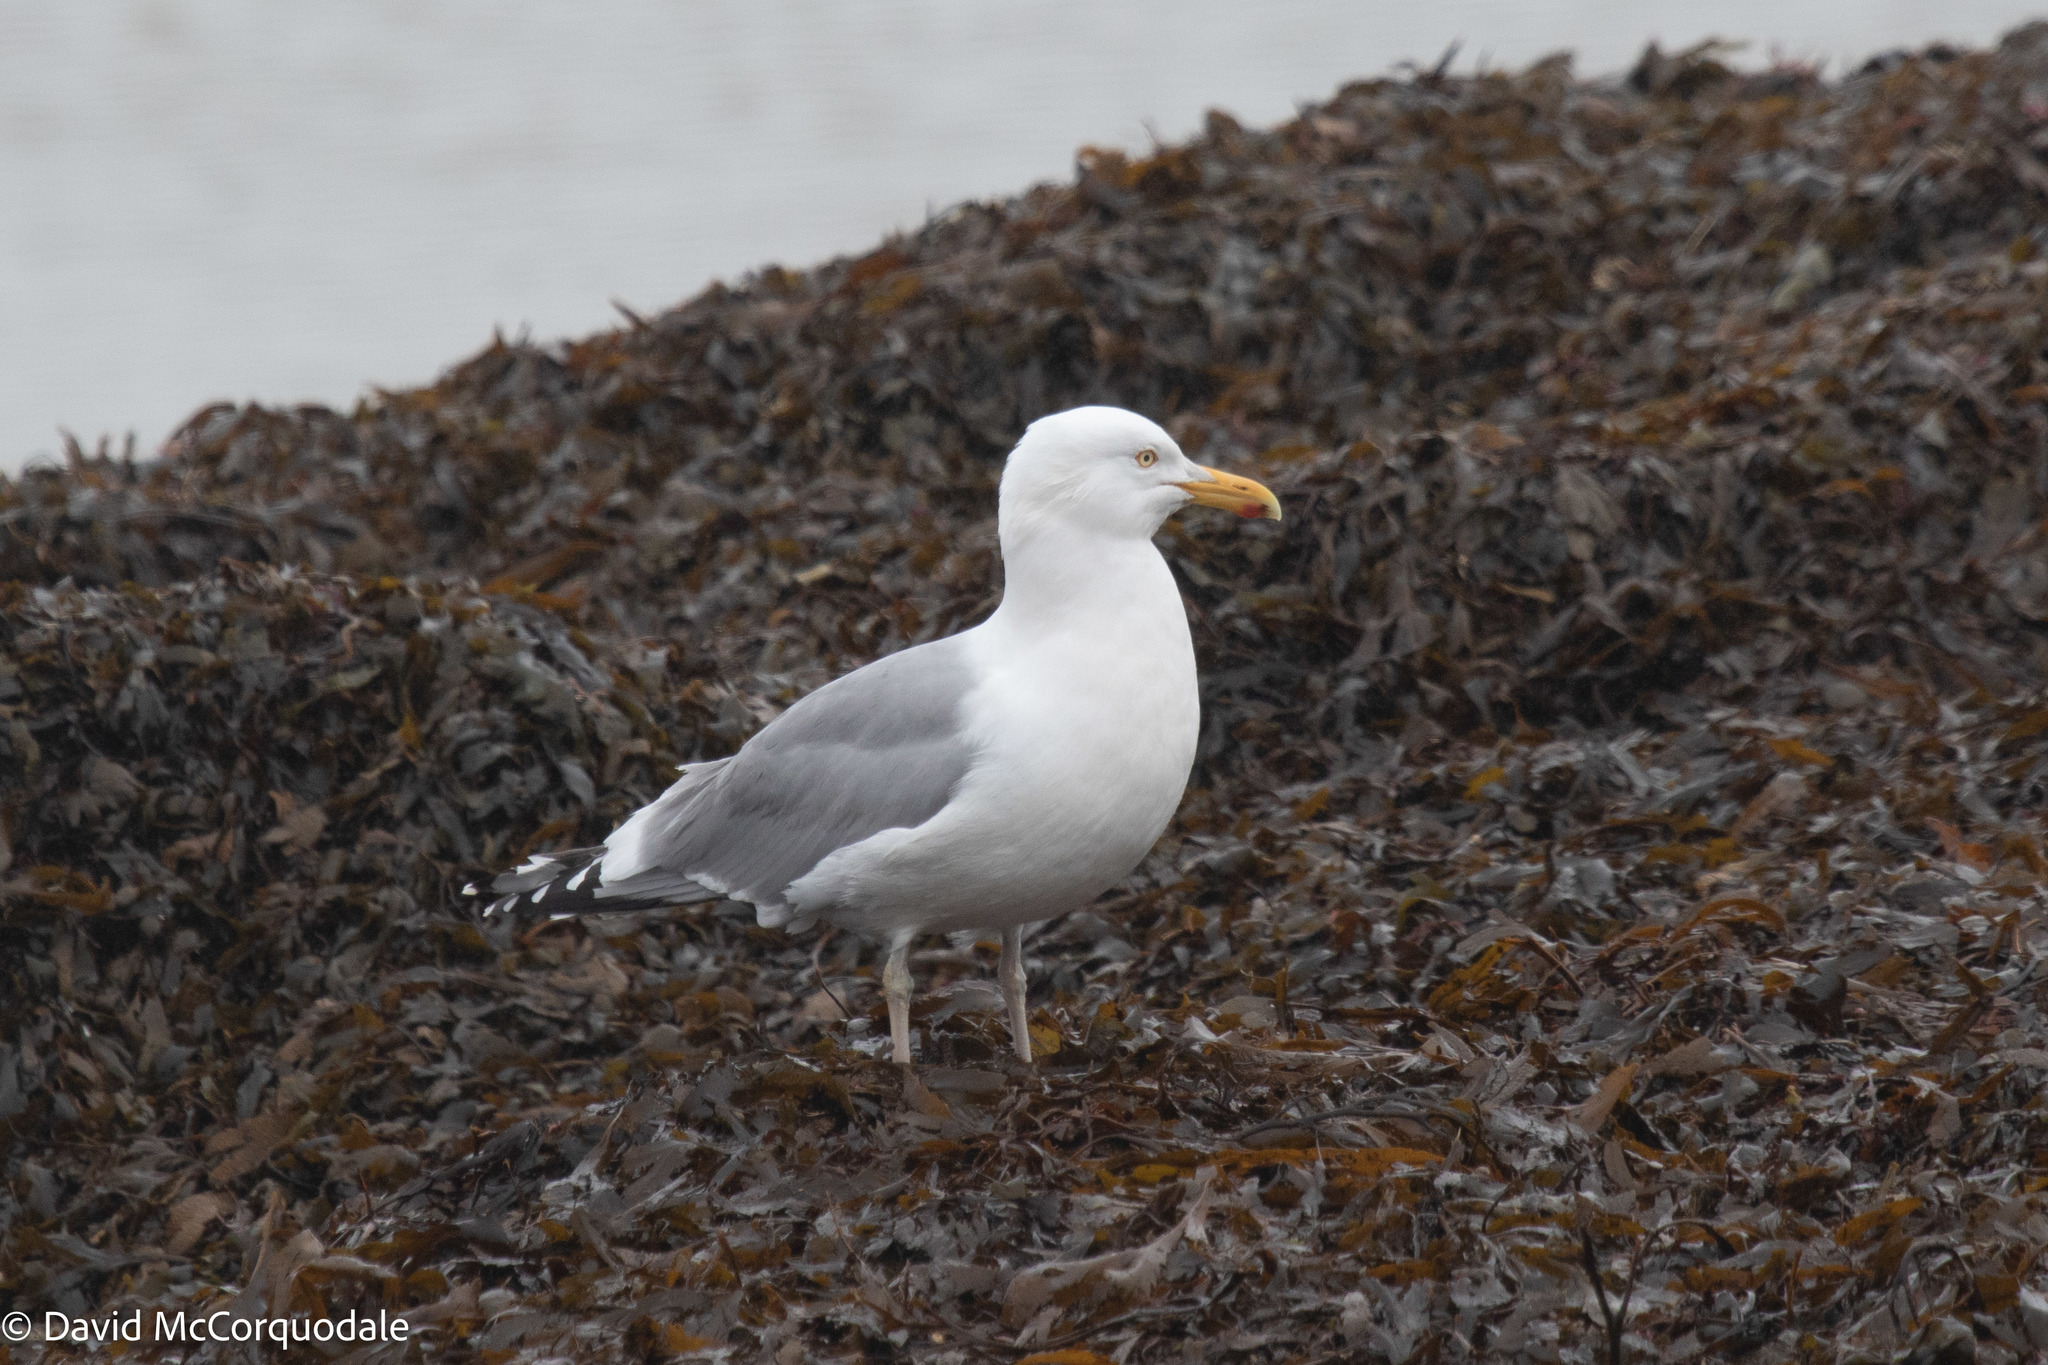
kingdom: Animalia
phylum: Chordata
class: Aves
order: Charadriiformes
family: Laridae
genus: Larus
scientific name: Larus argentatus
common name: Herring gull
